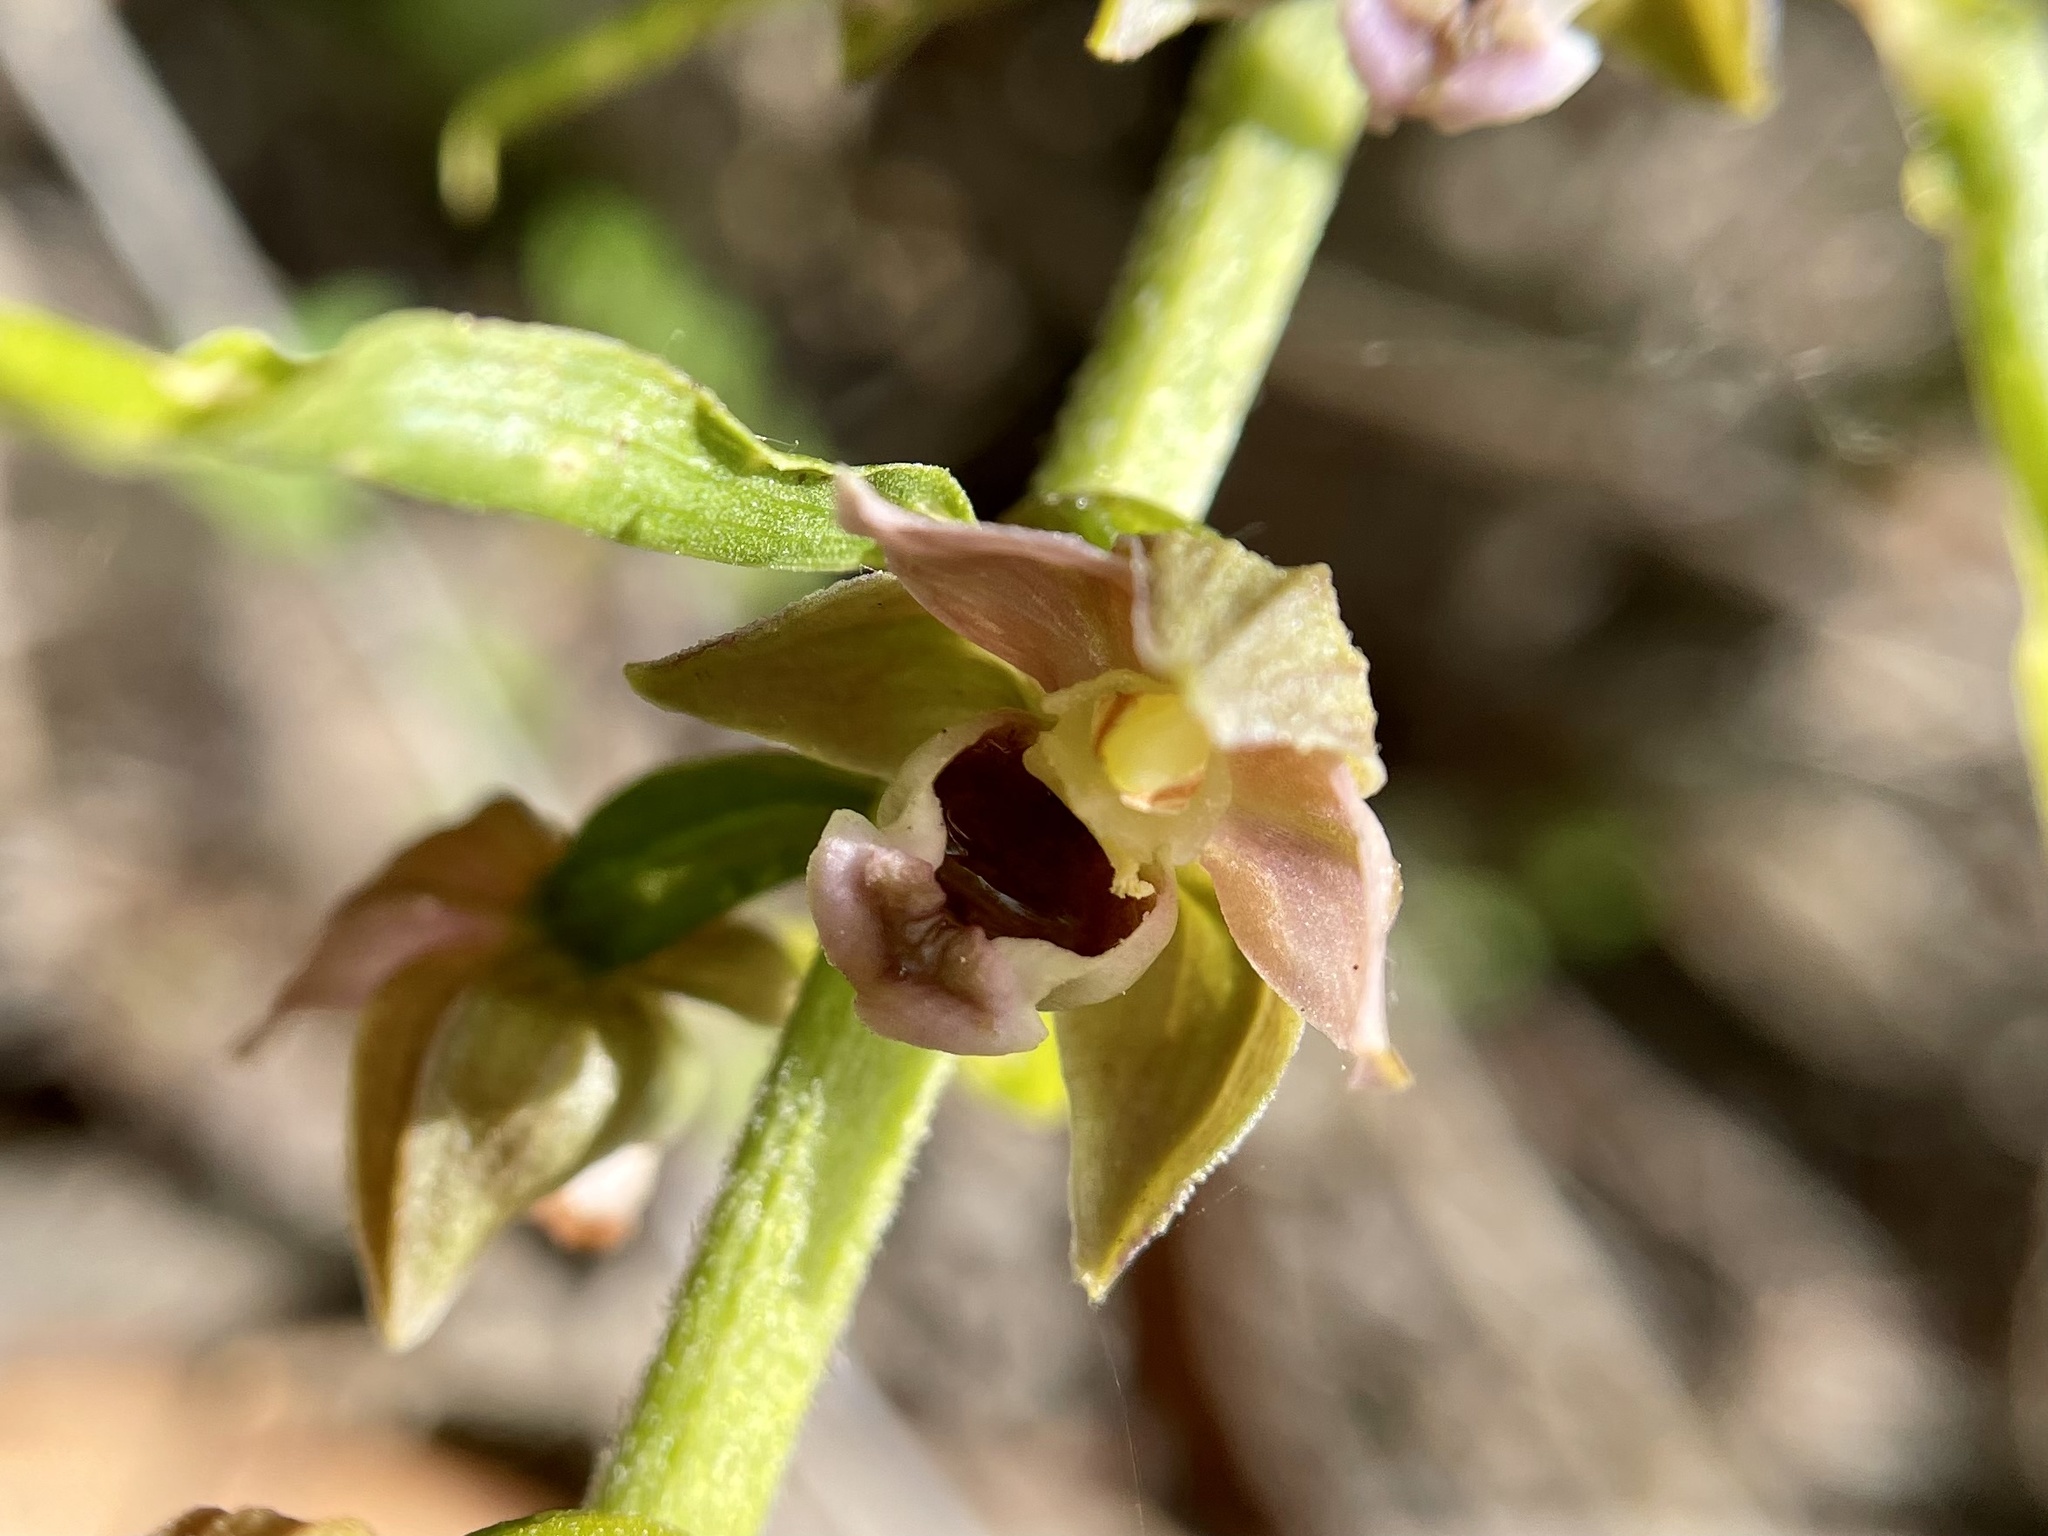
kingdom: Plantae
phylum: Tracheophyta
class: Liliopsida
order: Asparagales
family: Orchidaceae
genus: Epipactis
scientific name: Epipactis helleborine
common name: Broad-leaved helleborine
